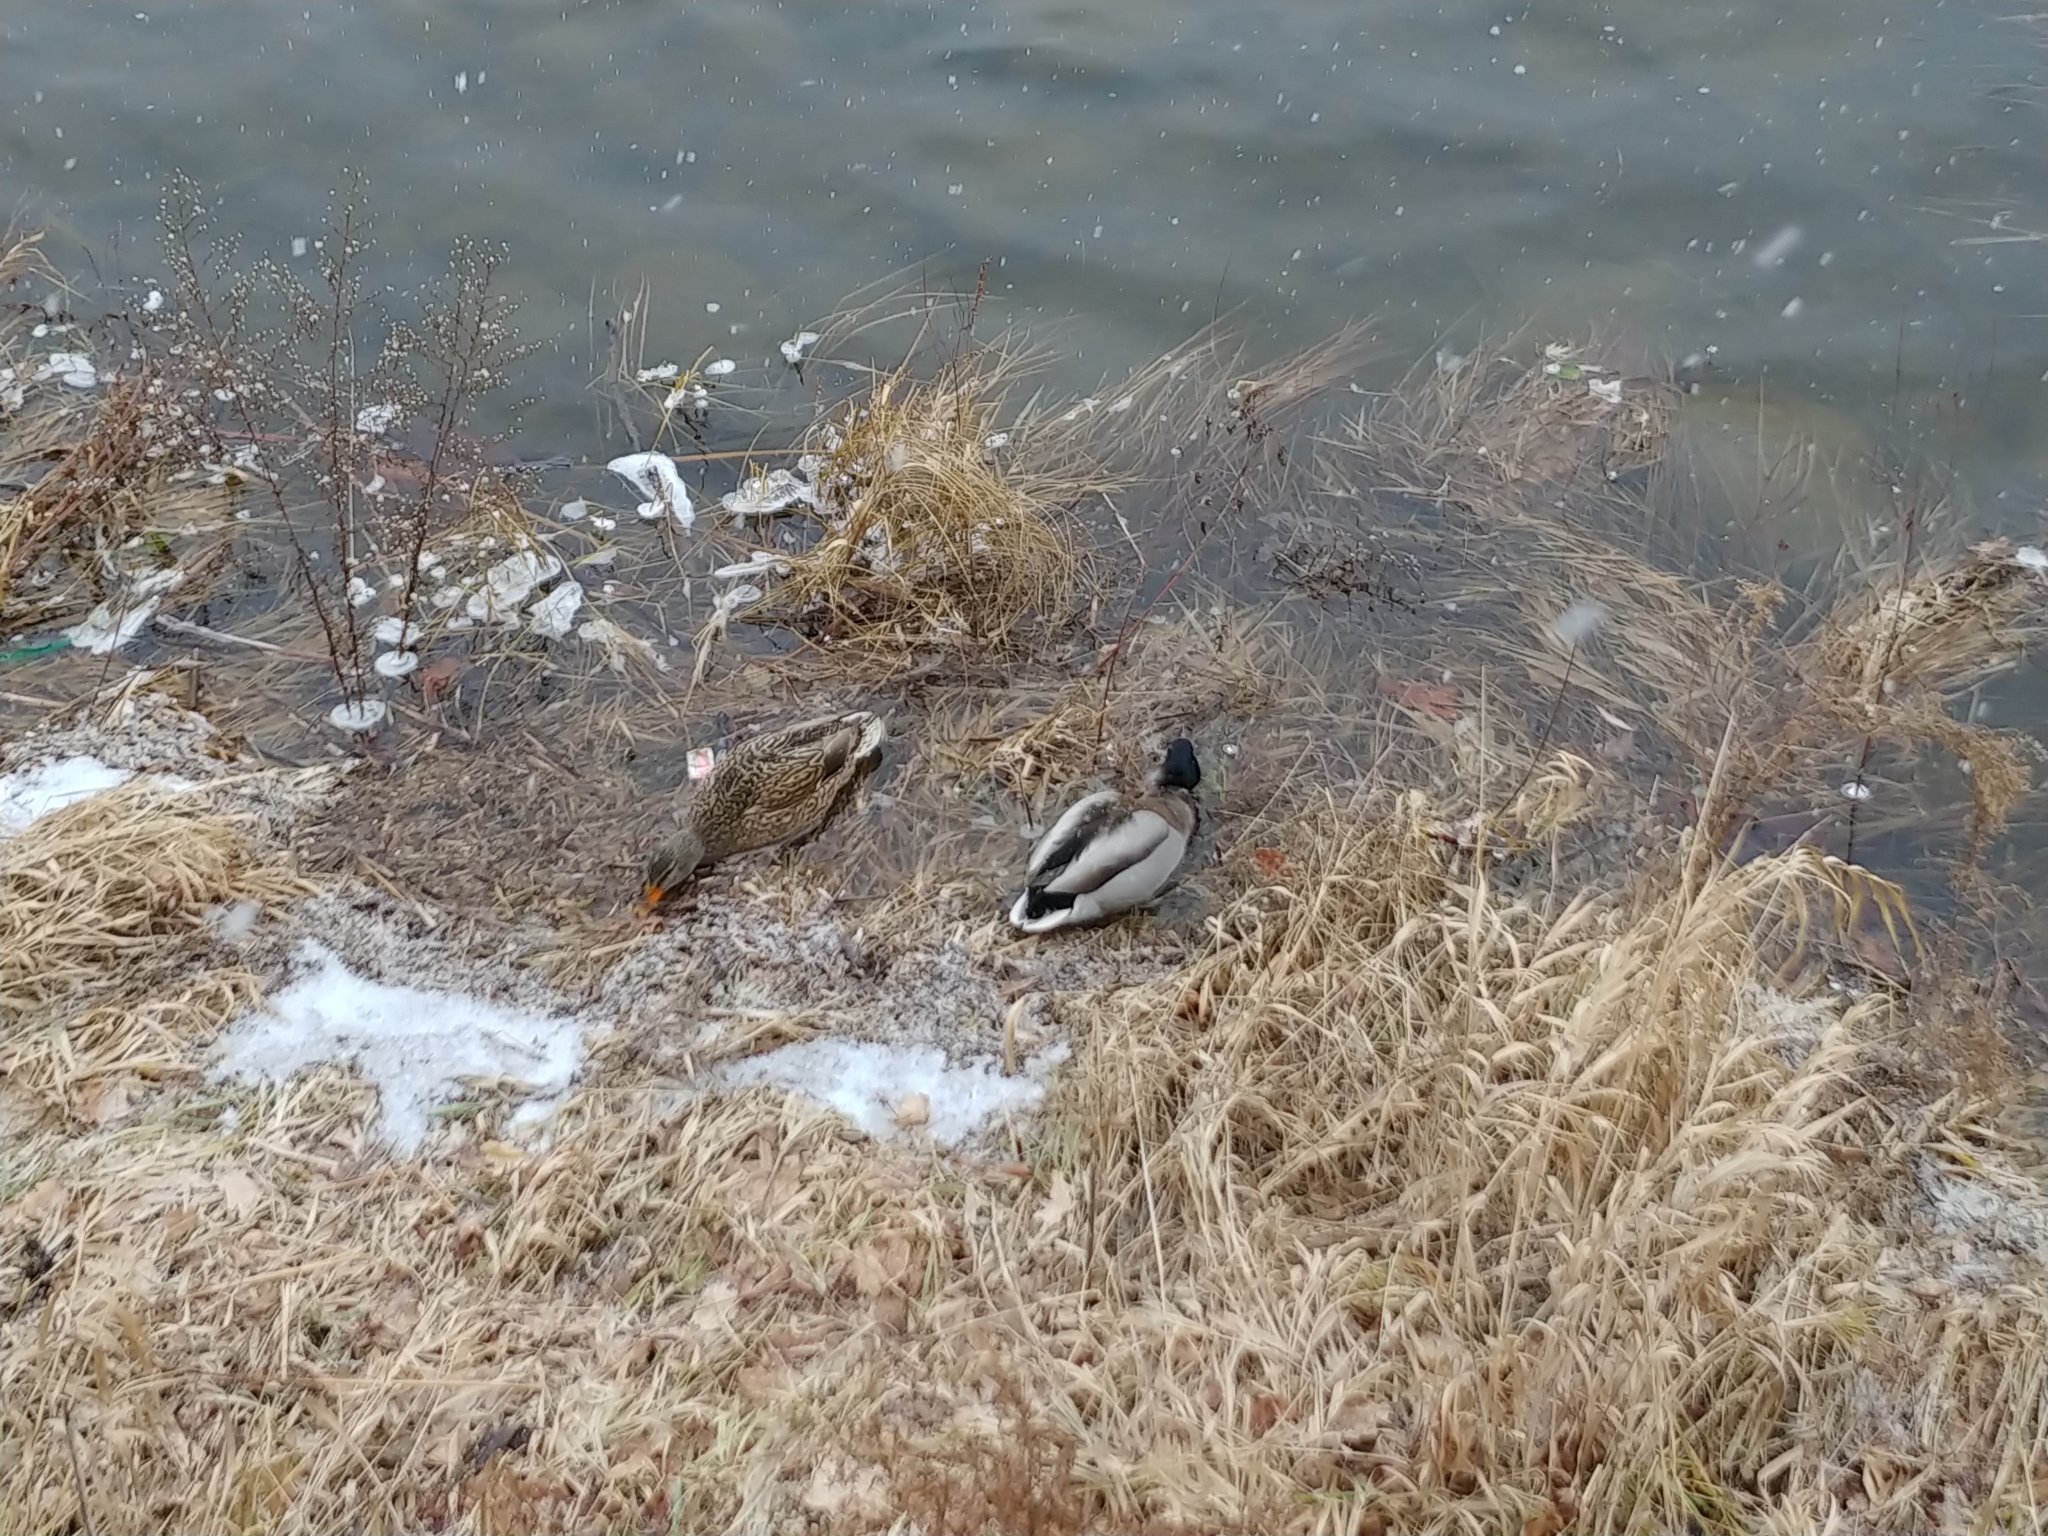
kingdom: Animalia
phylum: Chordata
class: Aves
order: Anseriformes
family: Anatidae
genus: Anas
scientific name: Anas platyrhynchos
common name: Mallard
